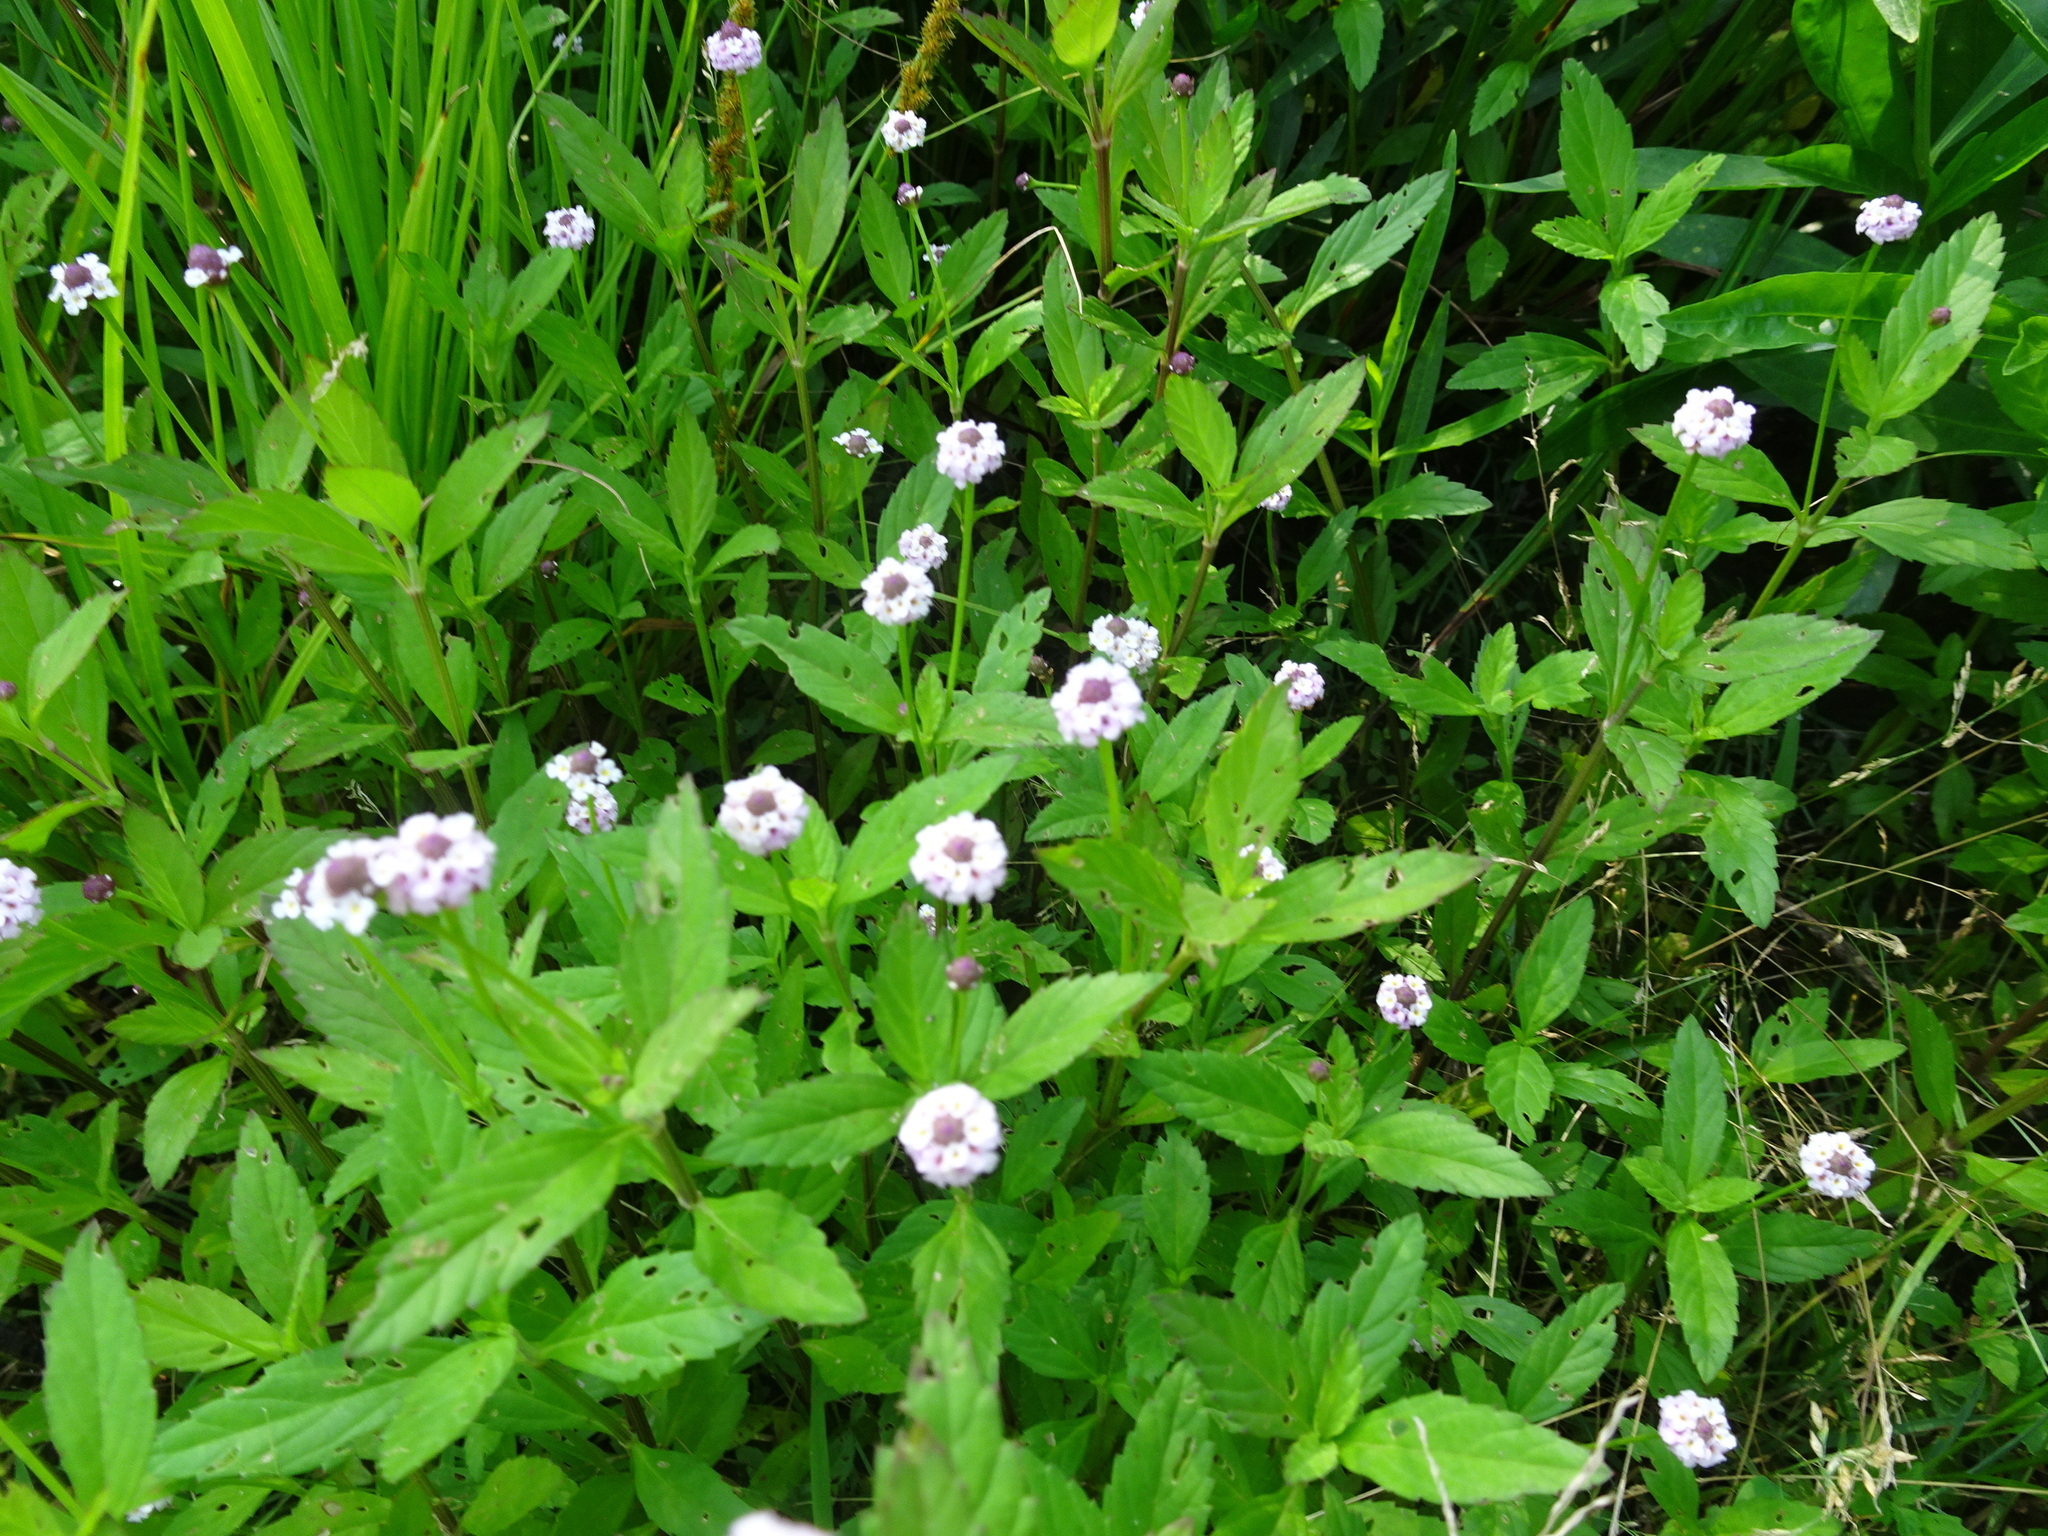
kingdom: Plantae
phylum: Tracheophyta
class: Magnoliopsida
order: Lamiales
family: Verbenaceae
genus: Phyla
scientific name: Phyla lanceolata
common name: Northern fogfruit
